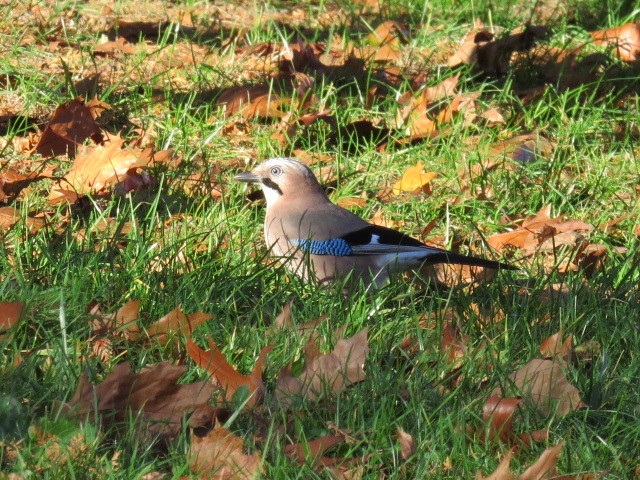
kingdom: Animalia
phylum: Chordata
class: Aves
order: Passeriformes
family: Corvidae
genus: Garrulus
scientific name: Garrulus glandarius
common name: Eurasian jay
